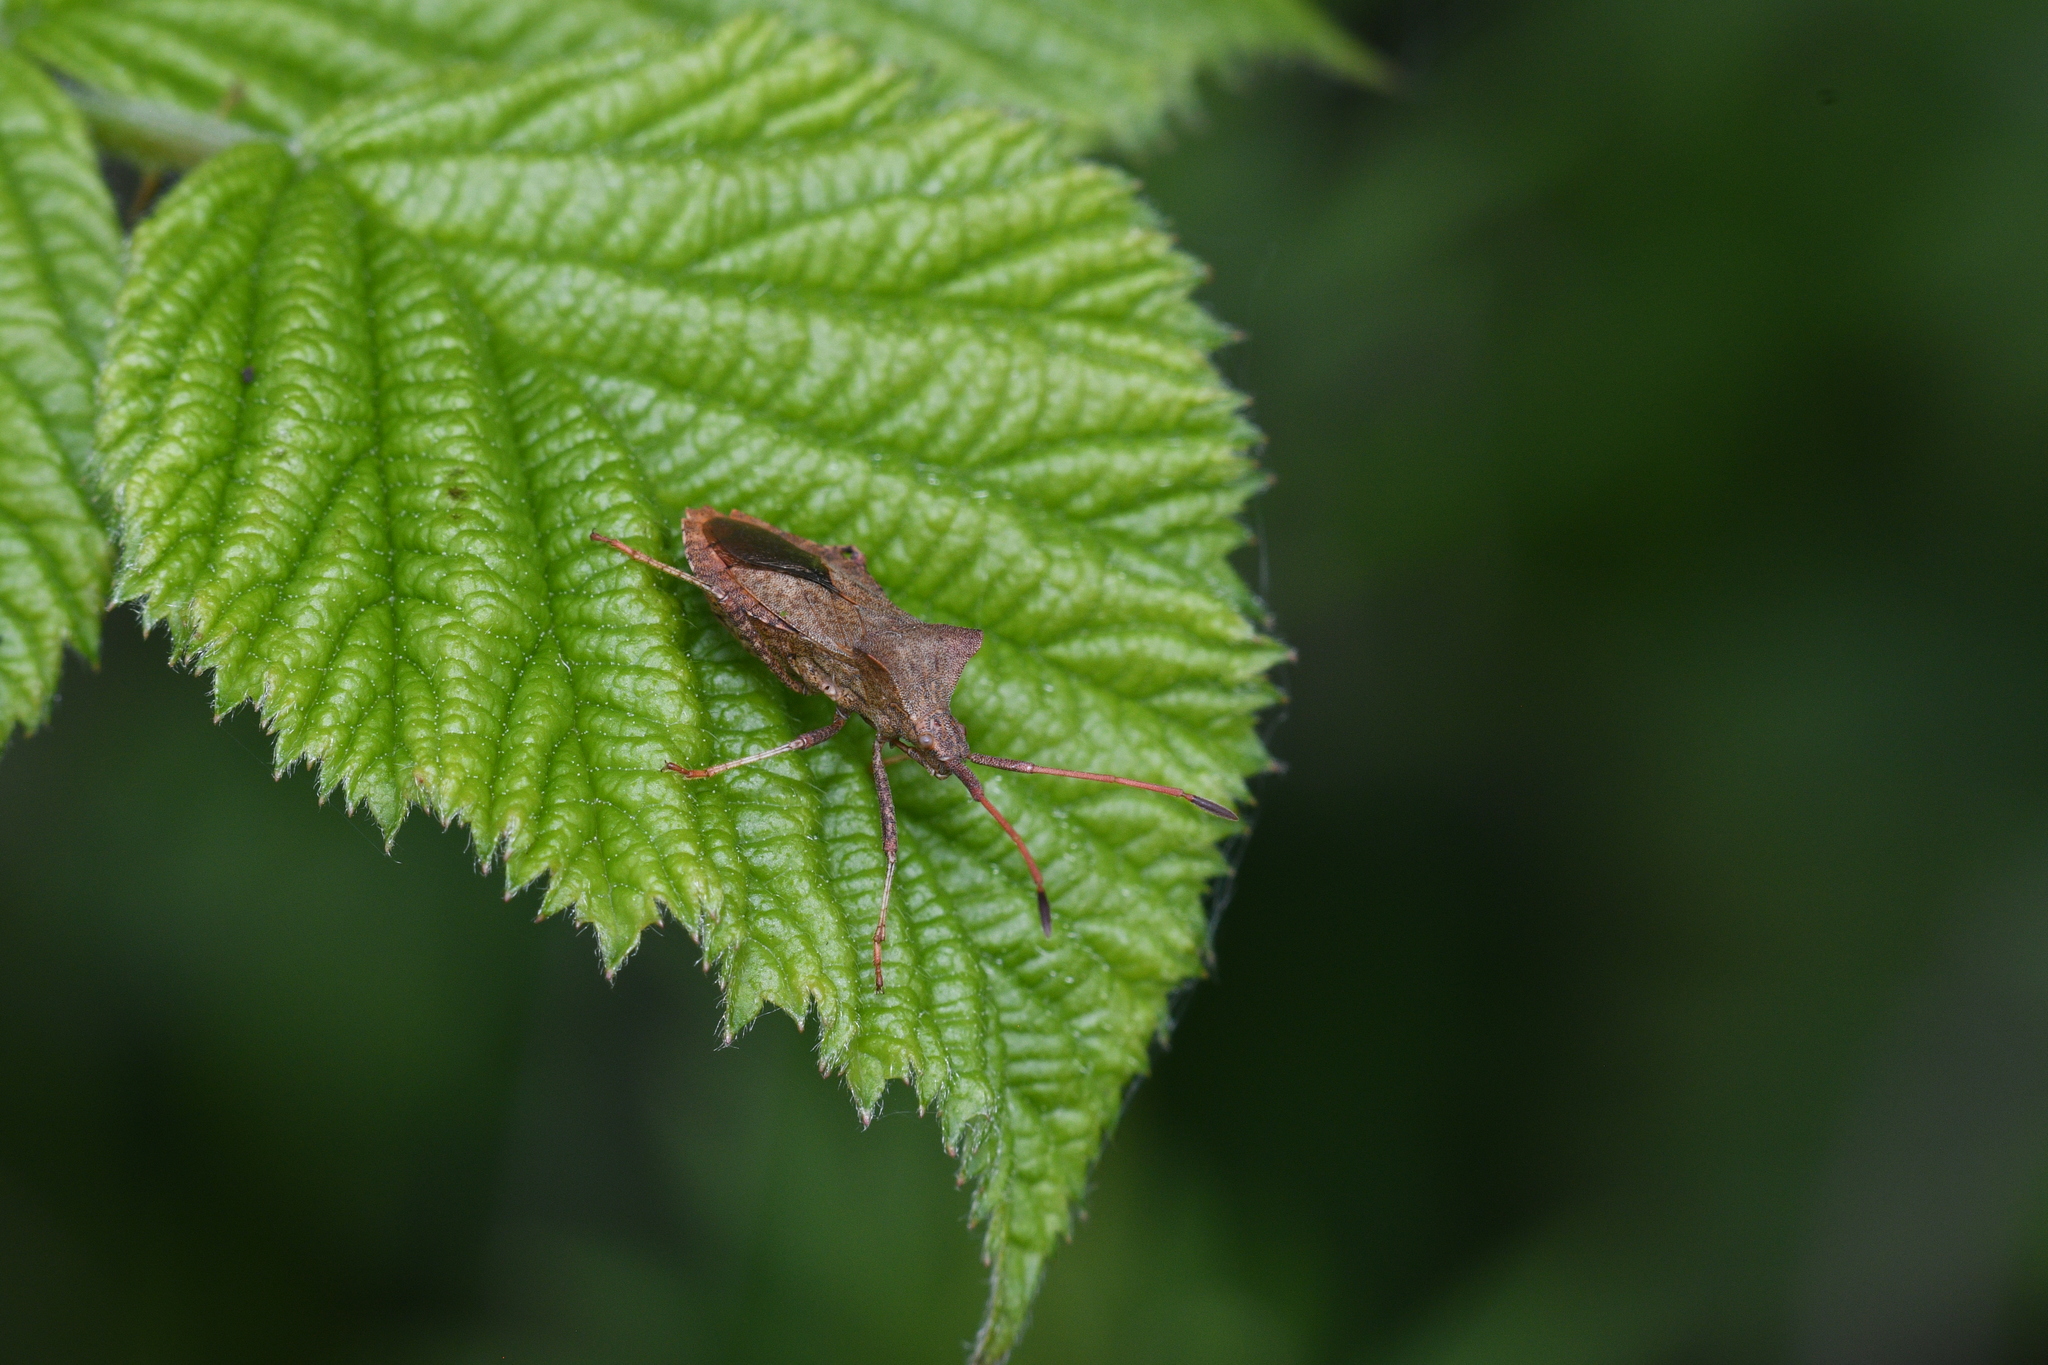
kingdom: Animalia
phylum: Arthropoda
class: Insecta
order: Hemiptera
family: Coreidae
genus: Coreus
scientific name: Coreus marginatus
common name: Dock bug
